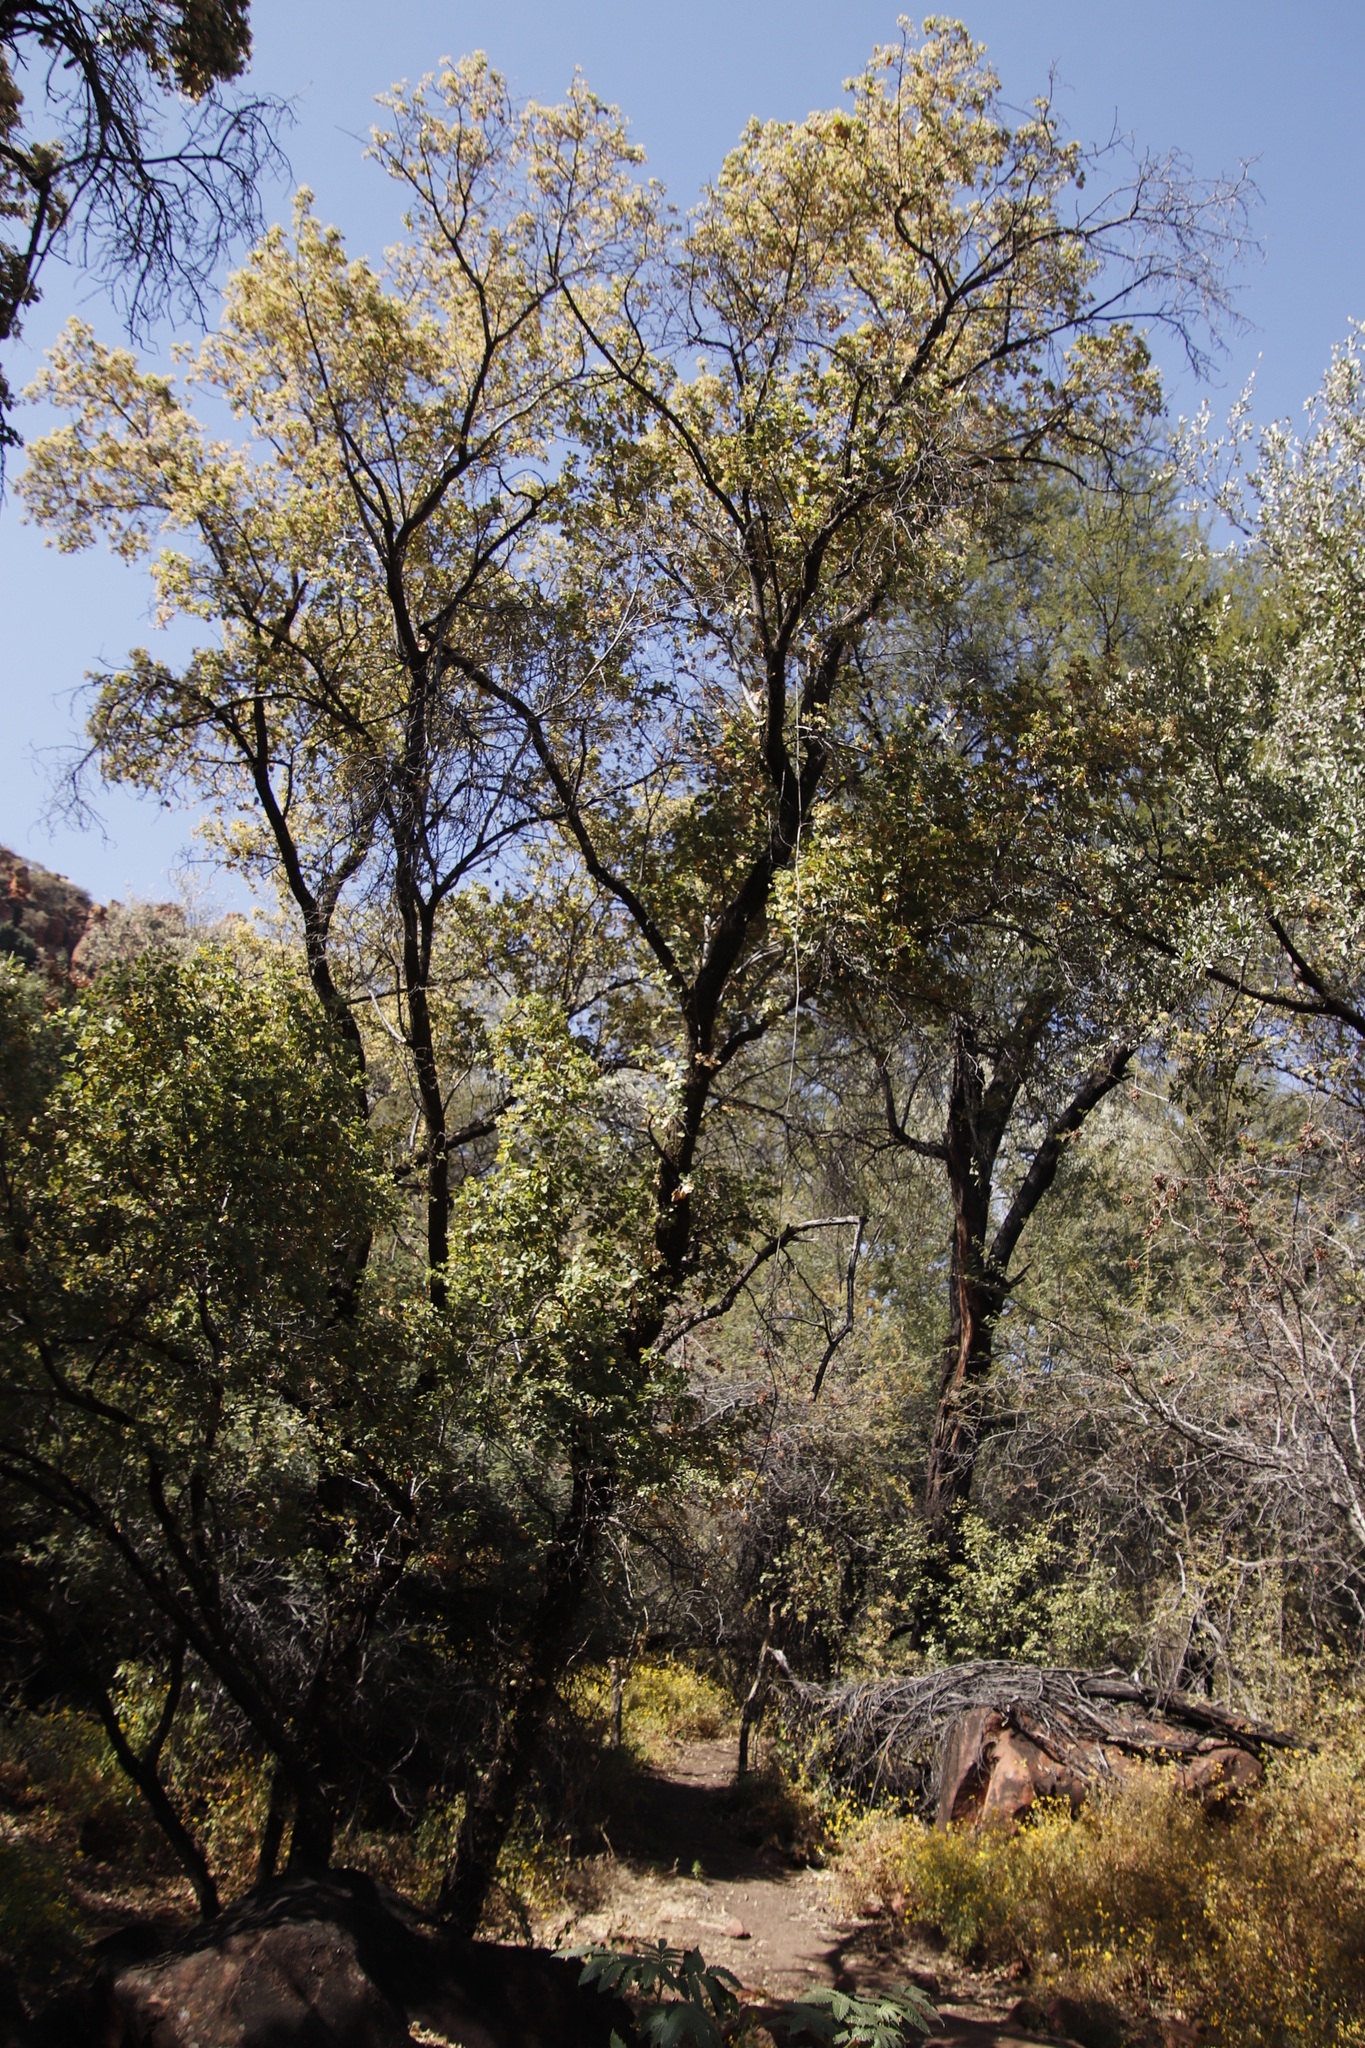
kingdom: Plantae
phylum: Tracheophyta
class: Magnoliopsida
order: Malvales
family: Malvaceae
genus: Dombeya
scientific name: Dombeya rotundifolia
